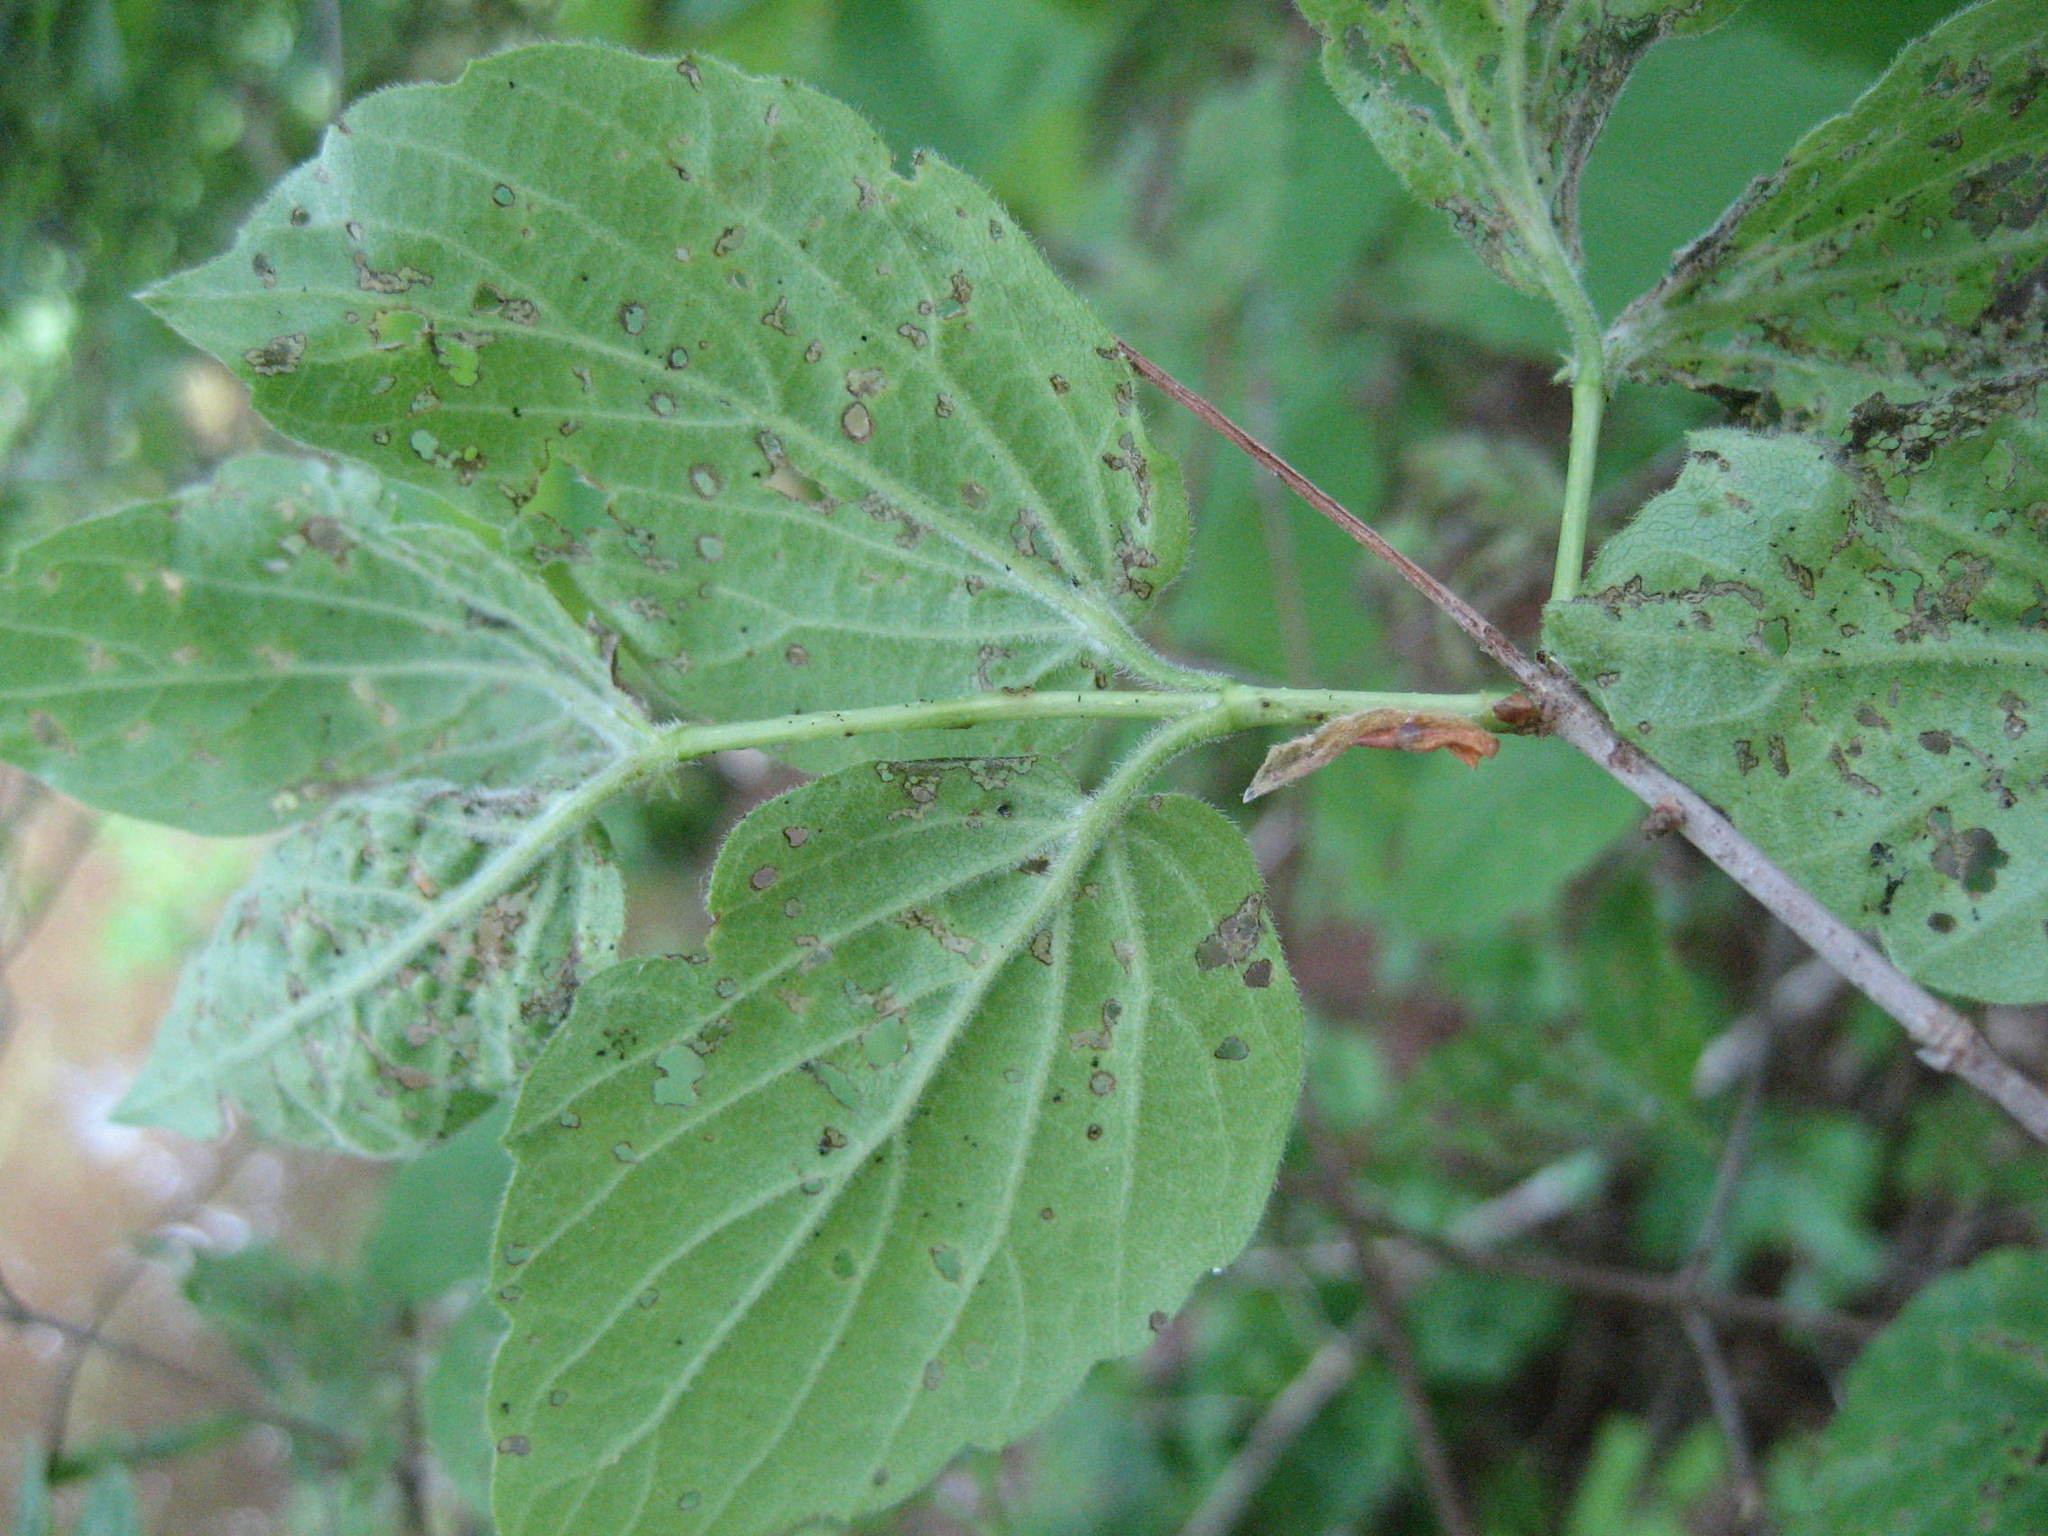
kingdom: Plantae
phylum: Tracheophyta
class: Magnoliopsida
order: Dipsacales
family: Viburnaceae
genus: Viburnum
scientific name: Viburnum rafinesqueanum
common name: Downy arrow-wood
